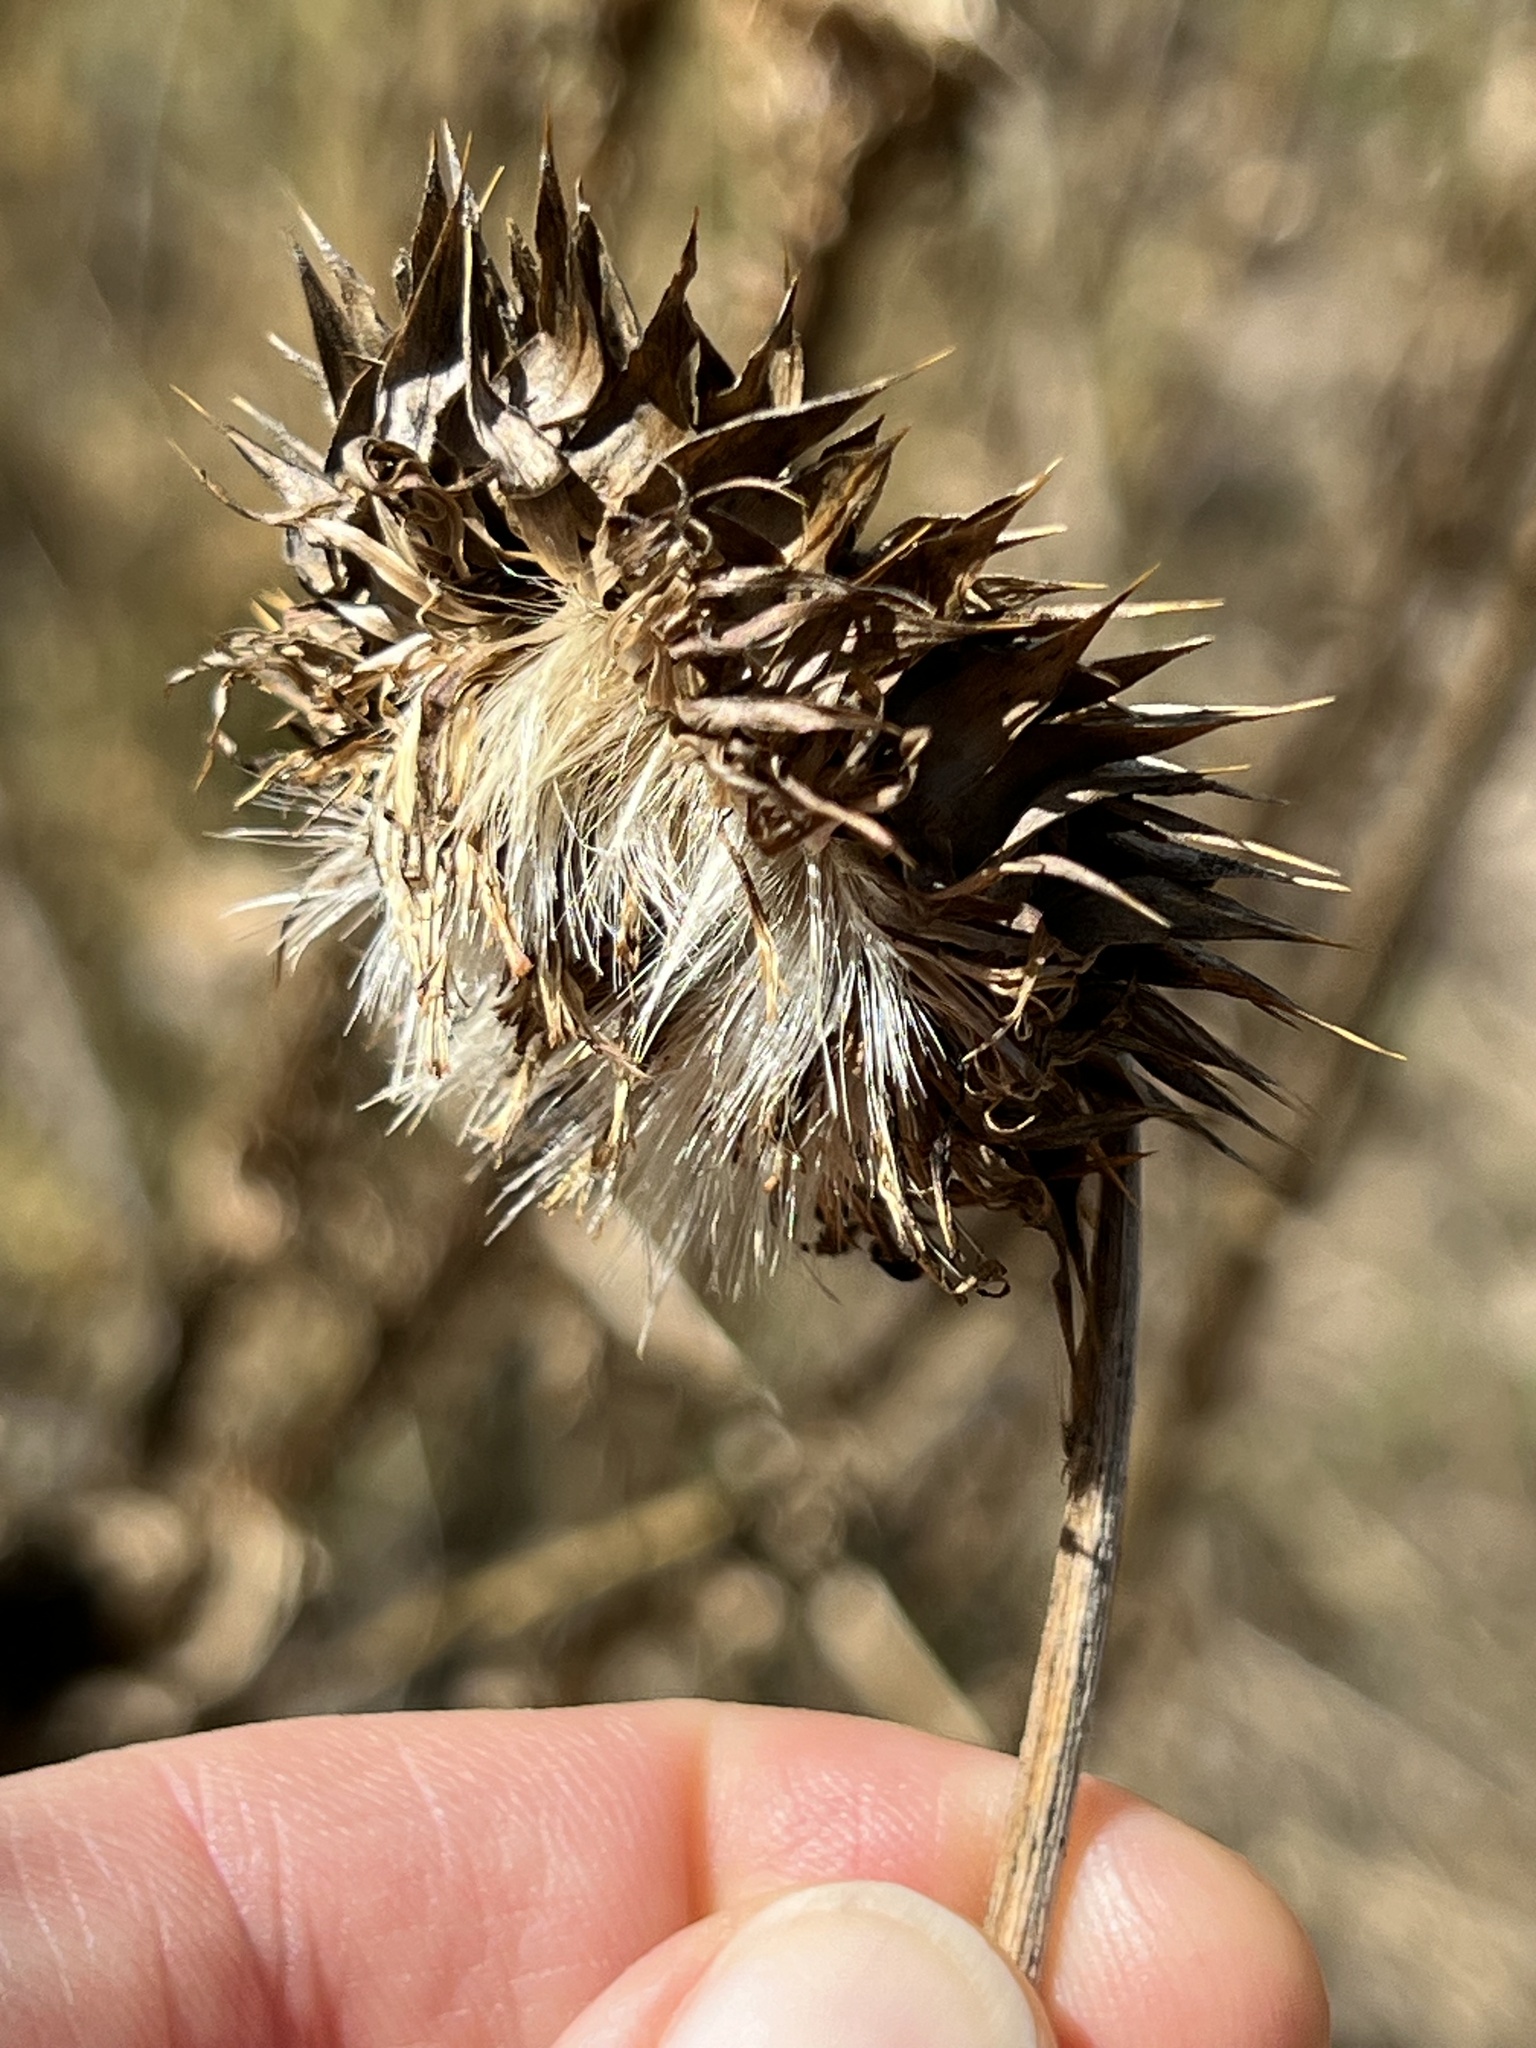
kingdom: Plantae
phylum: Tracheophyta
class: Magnoliopsida
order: Asterales
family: Asteraceae
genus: Carduus
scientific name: Carduus nutans
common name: Musk thistle
